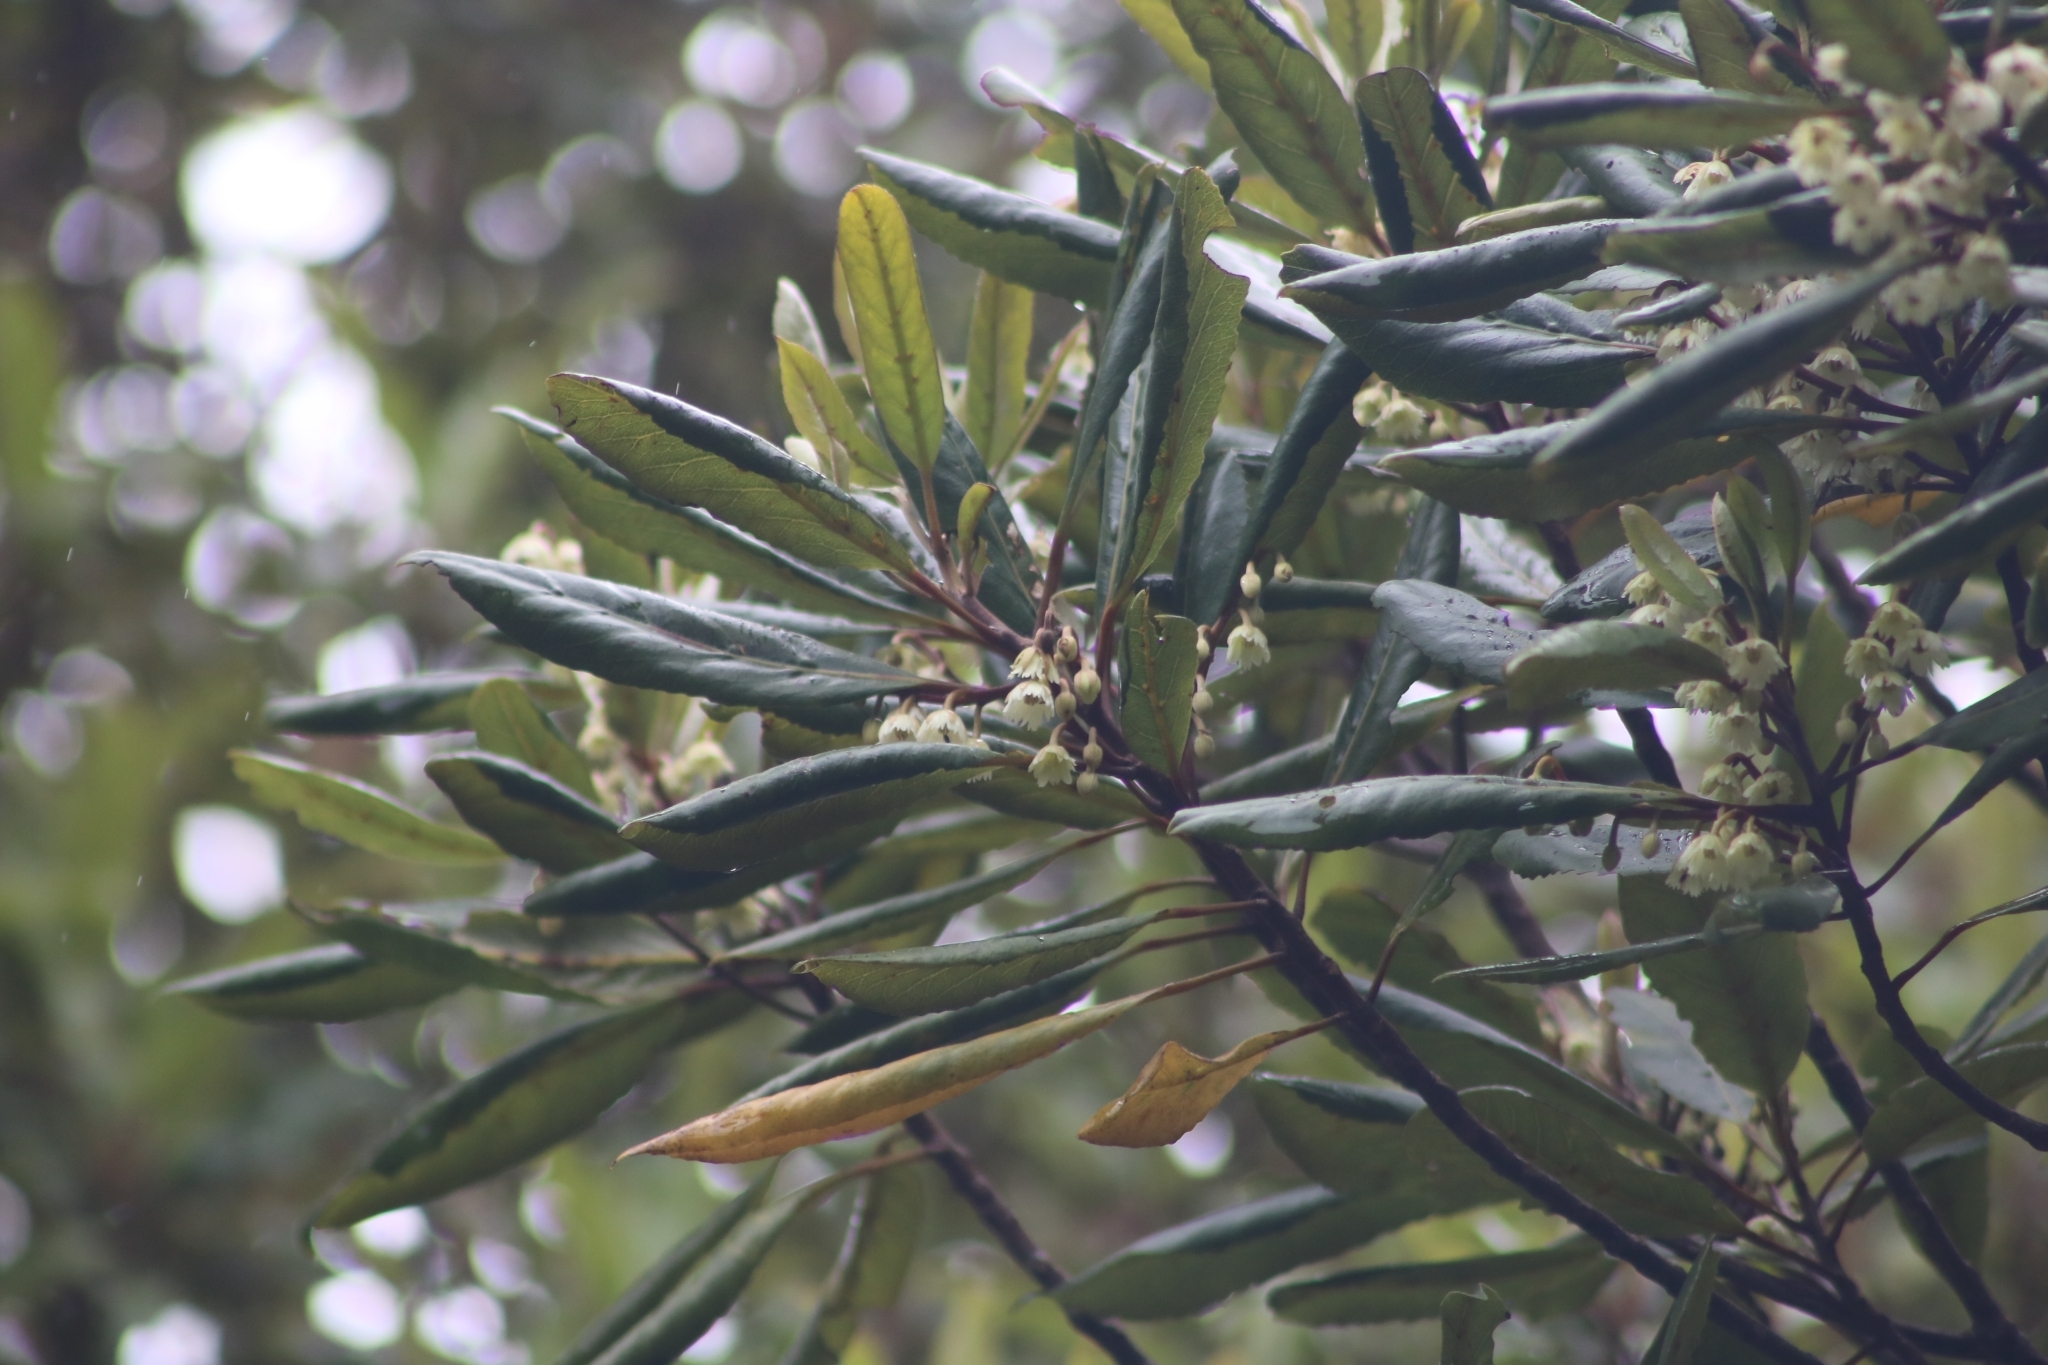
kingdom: Plantae
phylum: Tracheophyta
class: Magnoliopsida
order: Oxalidales
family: Elaeocarpaceae
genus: Elaeocarpus
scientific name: Elaeocarpus dentatus
